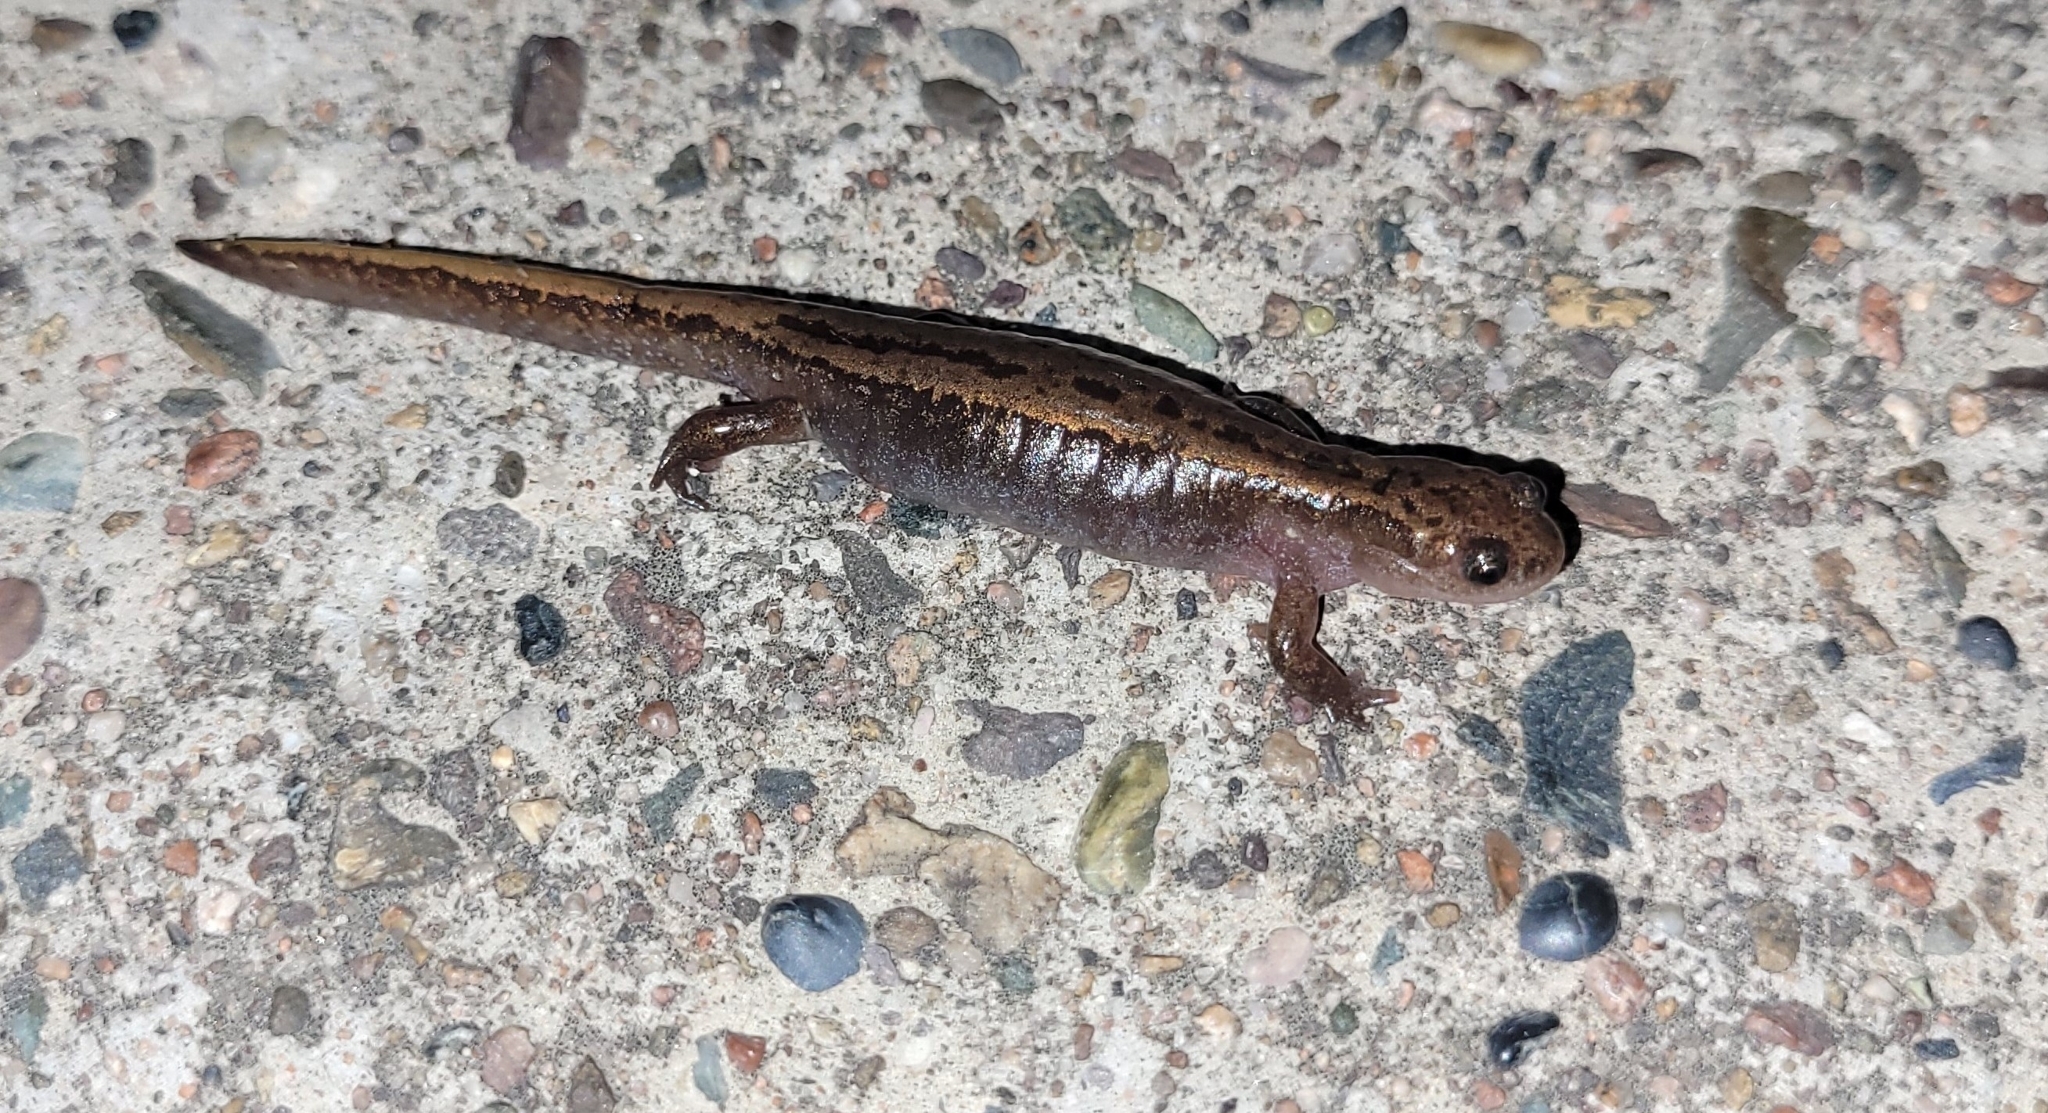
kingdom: Animalia
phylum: Chordata
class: Amphibia
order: Caudata
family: Hynobiidae
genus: Salamandrella
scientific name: Salamandrella tridactyla
